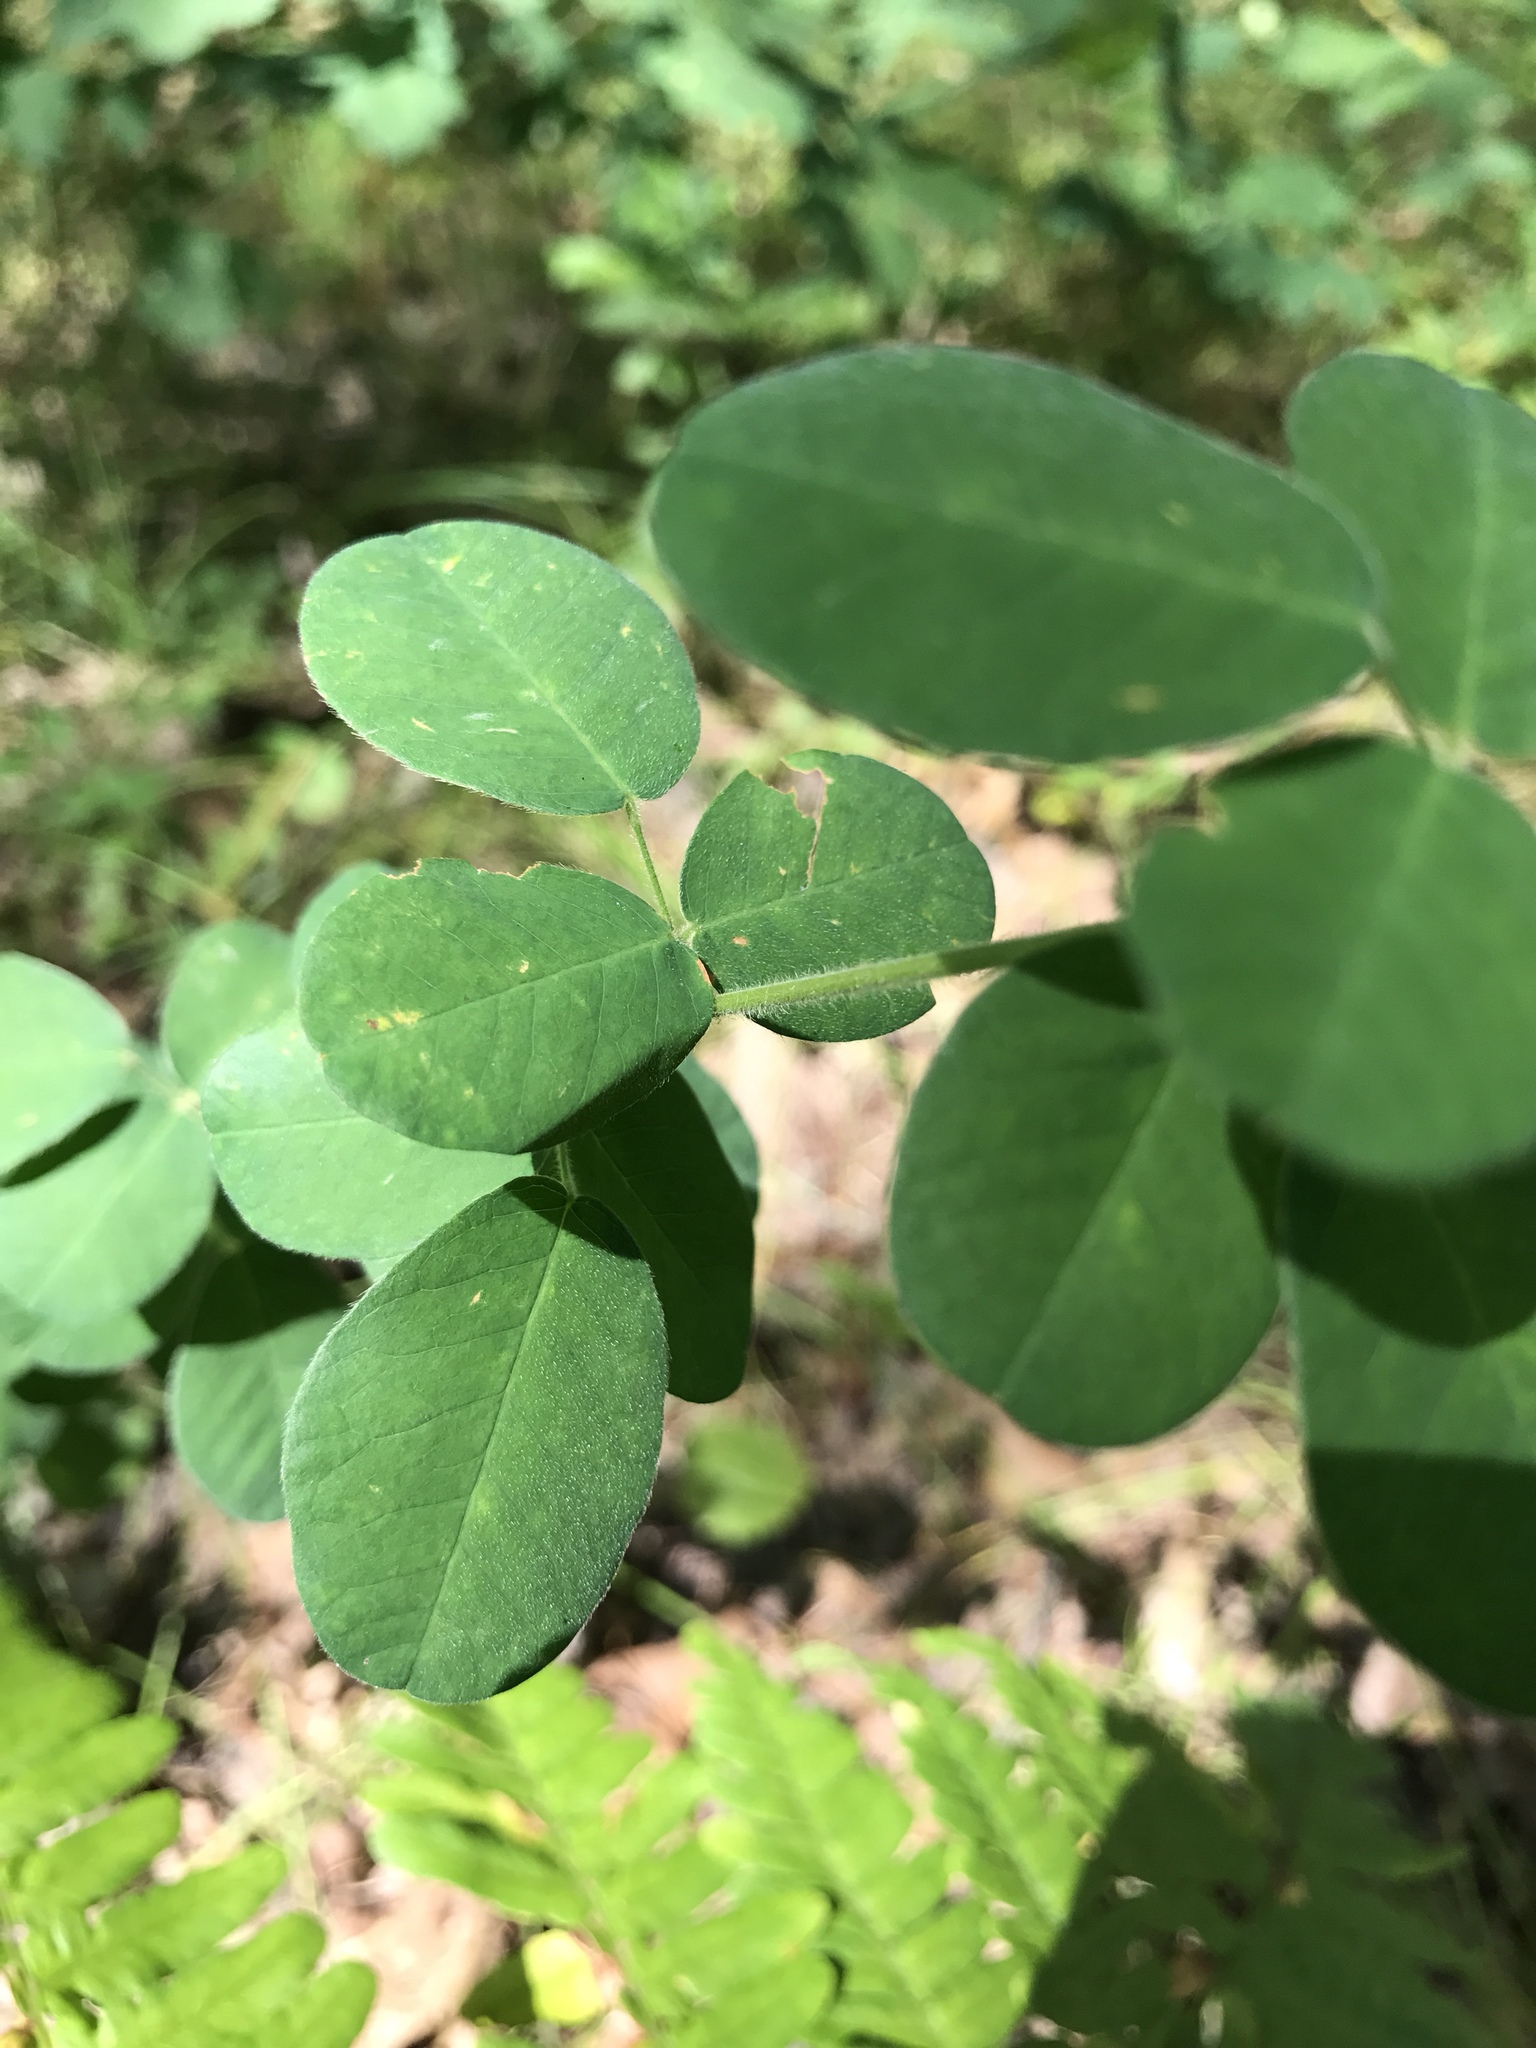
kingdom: Plantae
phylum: Tracheophyta
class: Magnoliopsida
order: Fabales
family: Fabaceae
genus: Lespedeza
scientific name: Lespedeza hirta
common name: Hairy lespedeza
